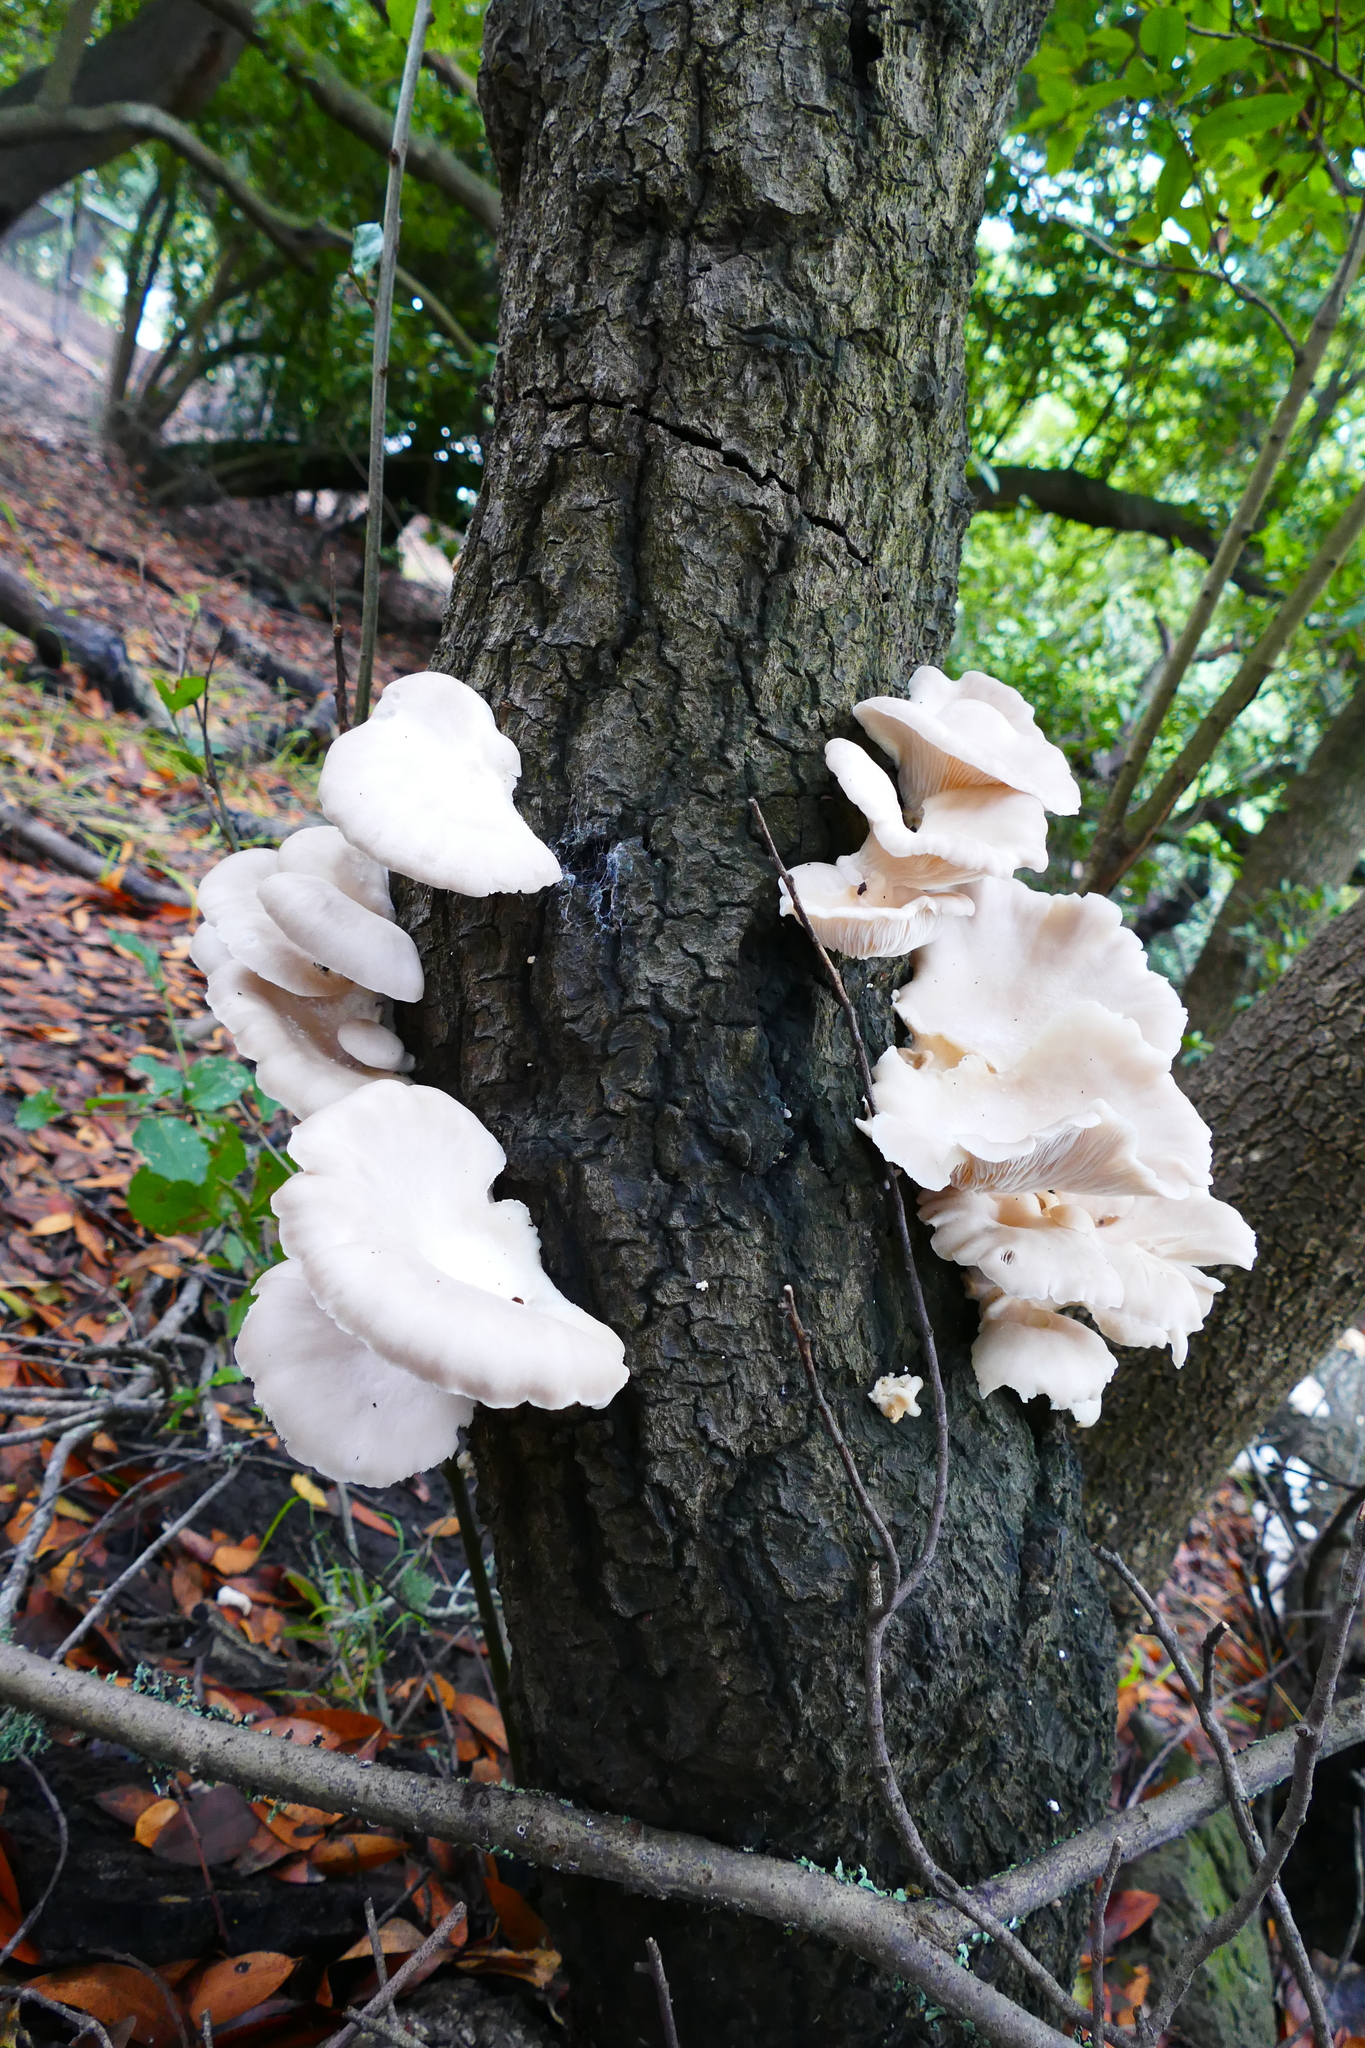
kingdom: Fungi
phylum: Basidiomycota
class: Agaricomycetes
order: Agaricales
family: Pleurotaceae
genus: Pleurotus
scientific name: Pleurotus pulmonarius
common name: Pale oyster
